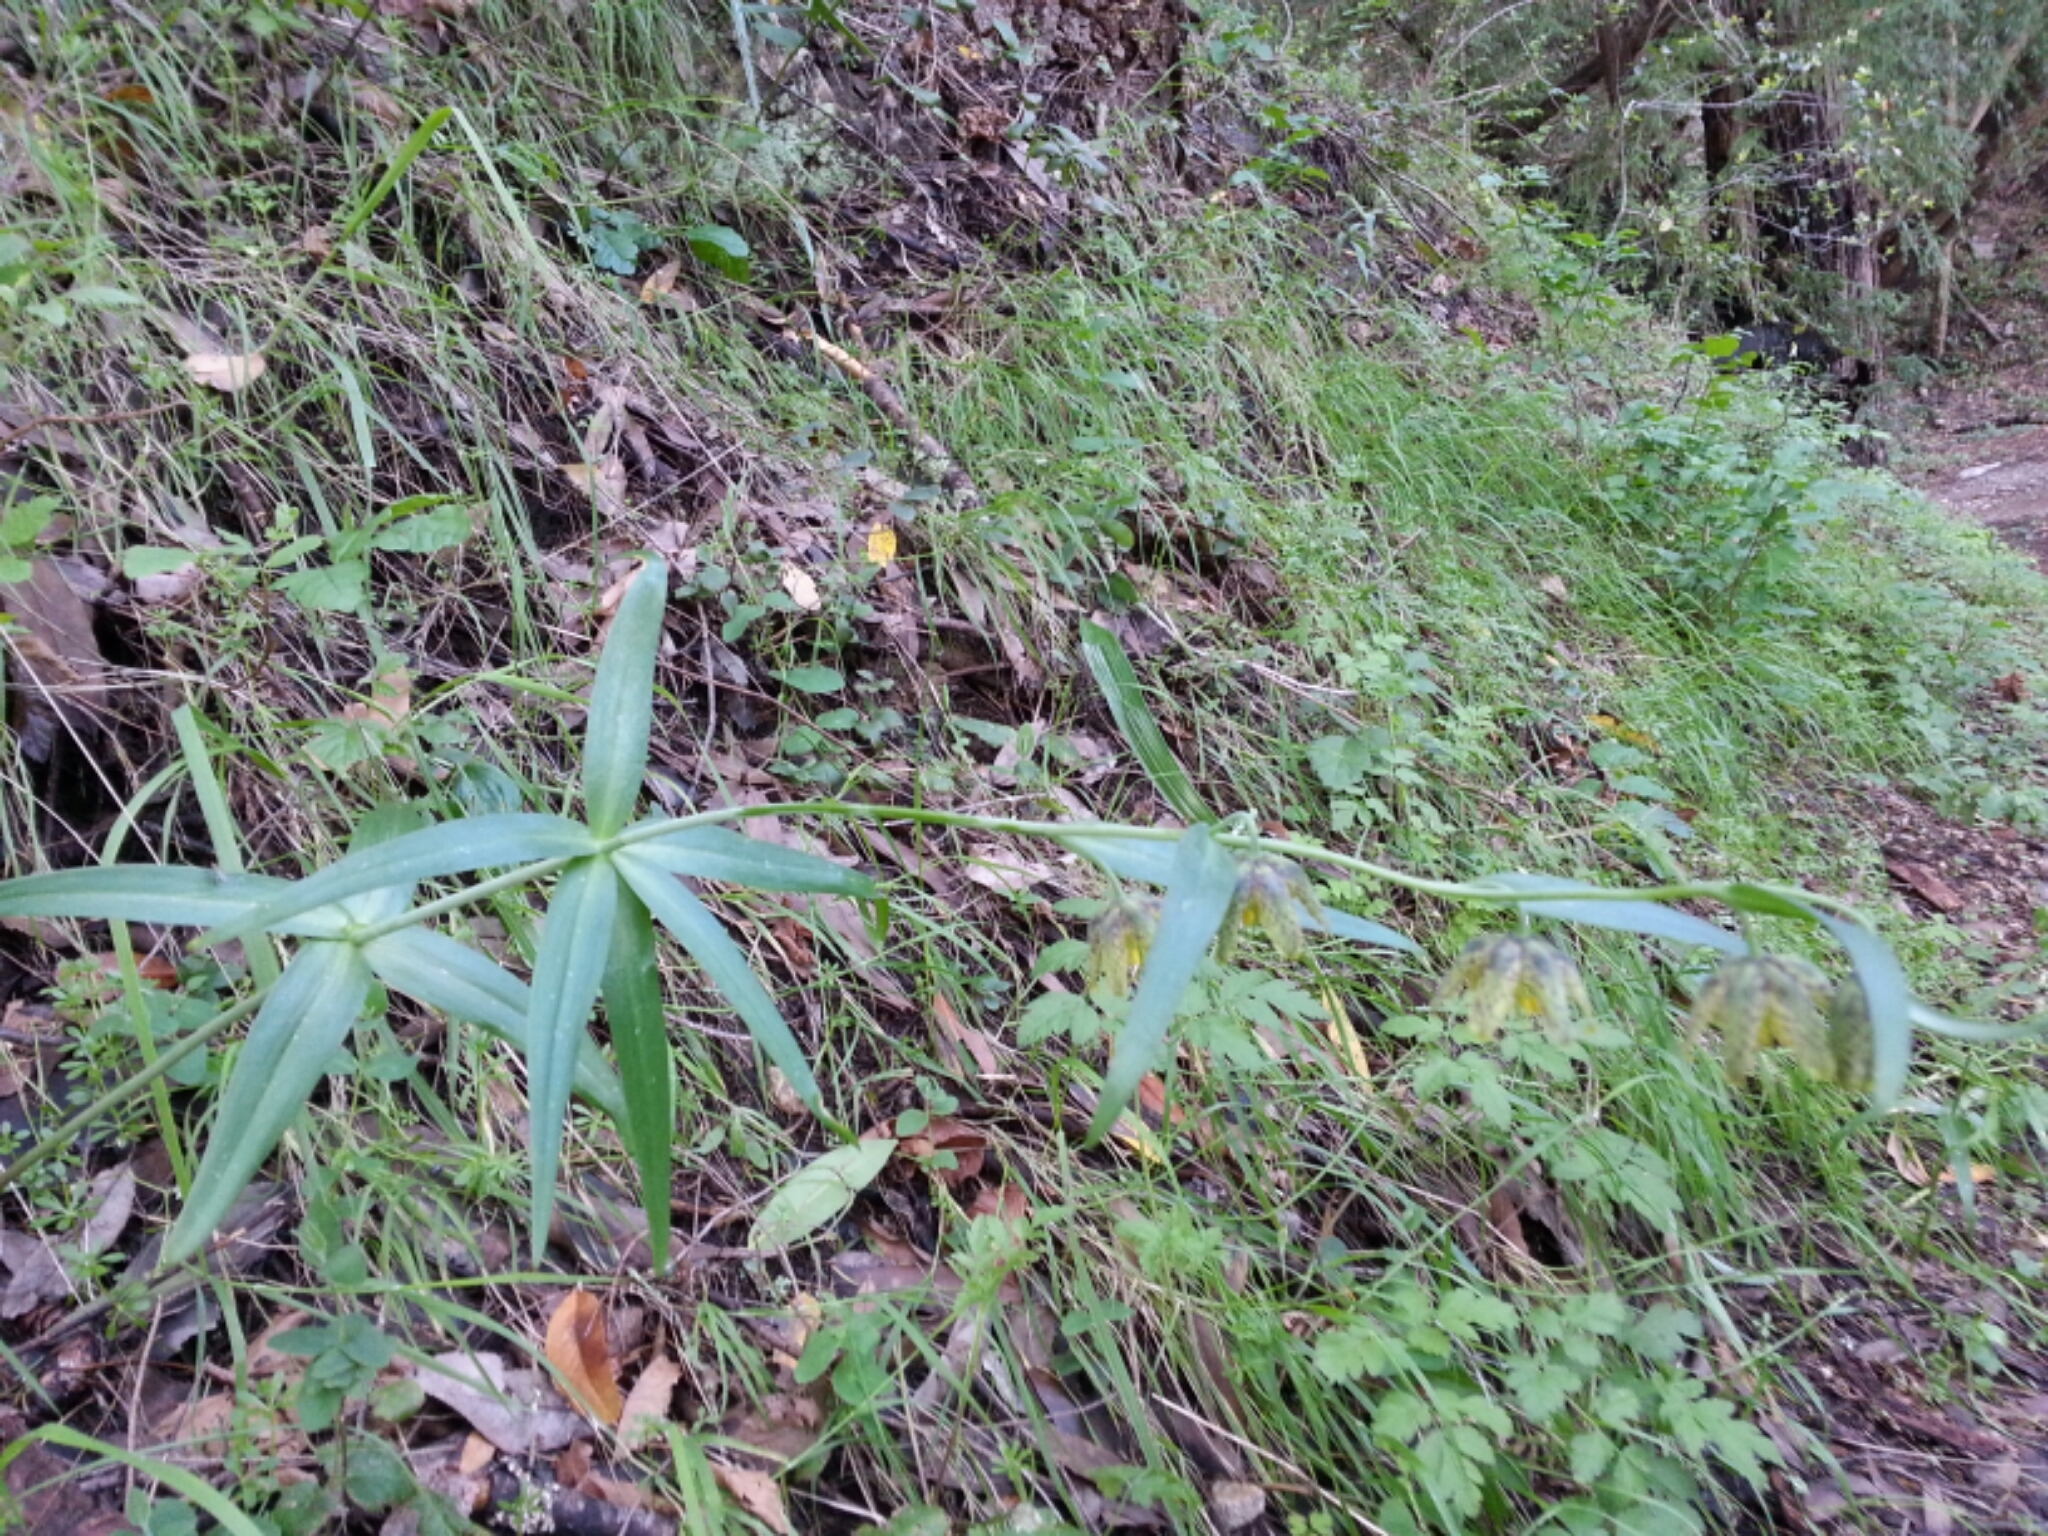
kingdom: Plantae
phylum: Tracheophyta
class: Liliopsida
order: Liliales
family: Liliaceae
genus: Fritillaria
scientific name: Fritillaria affinis
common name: Ojai fritillary
